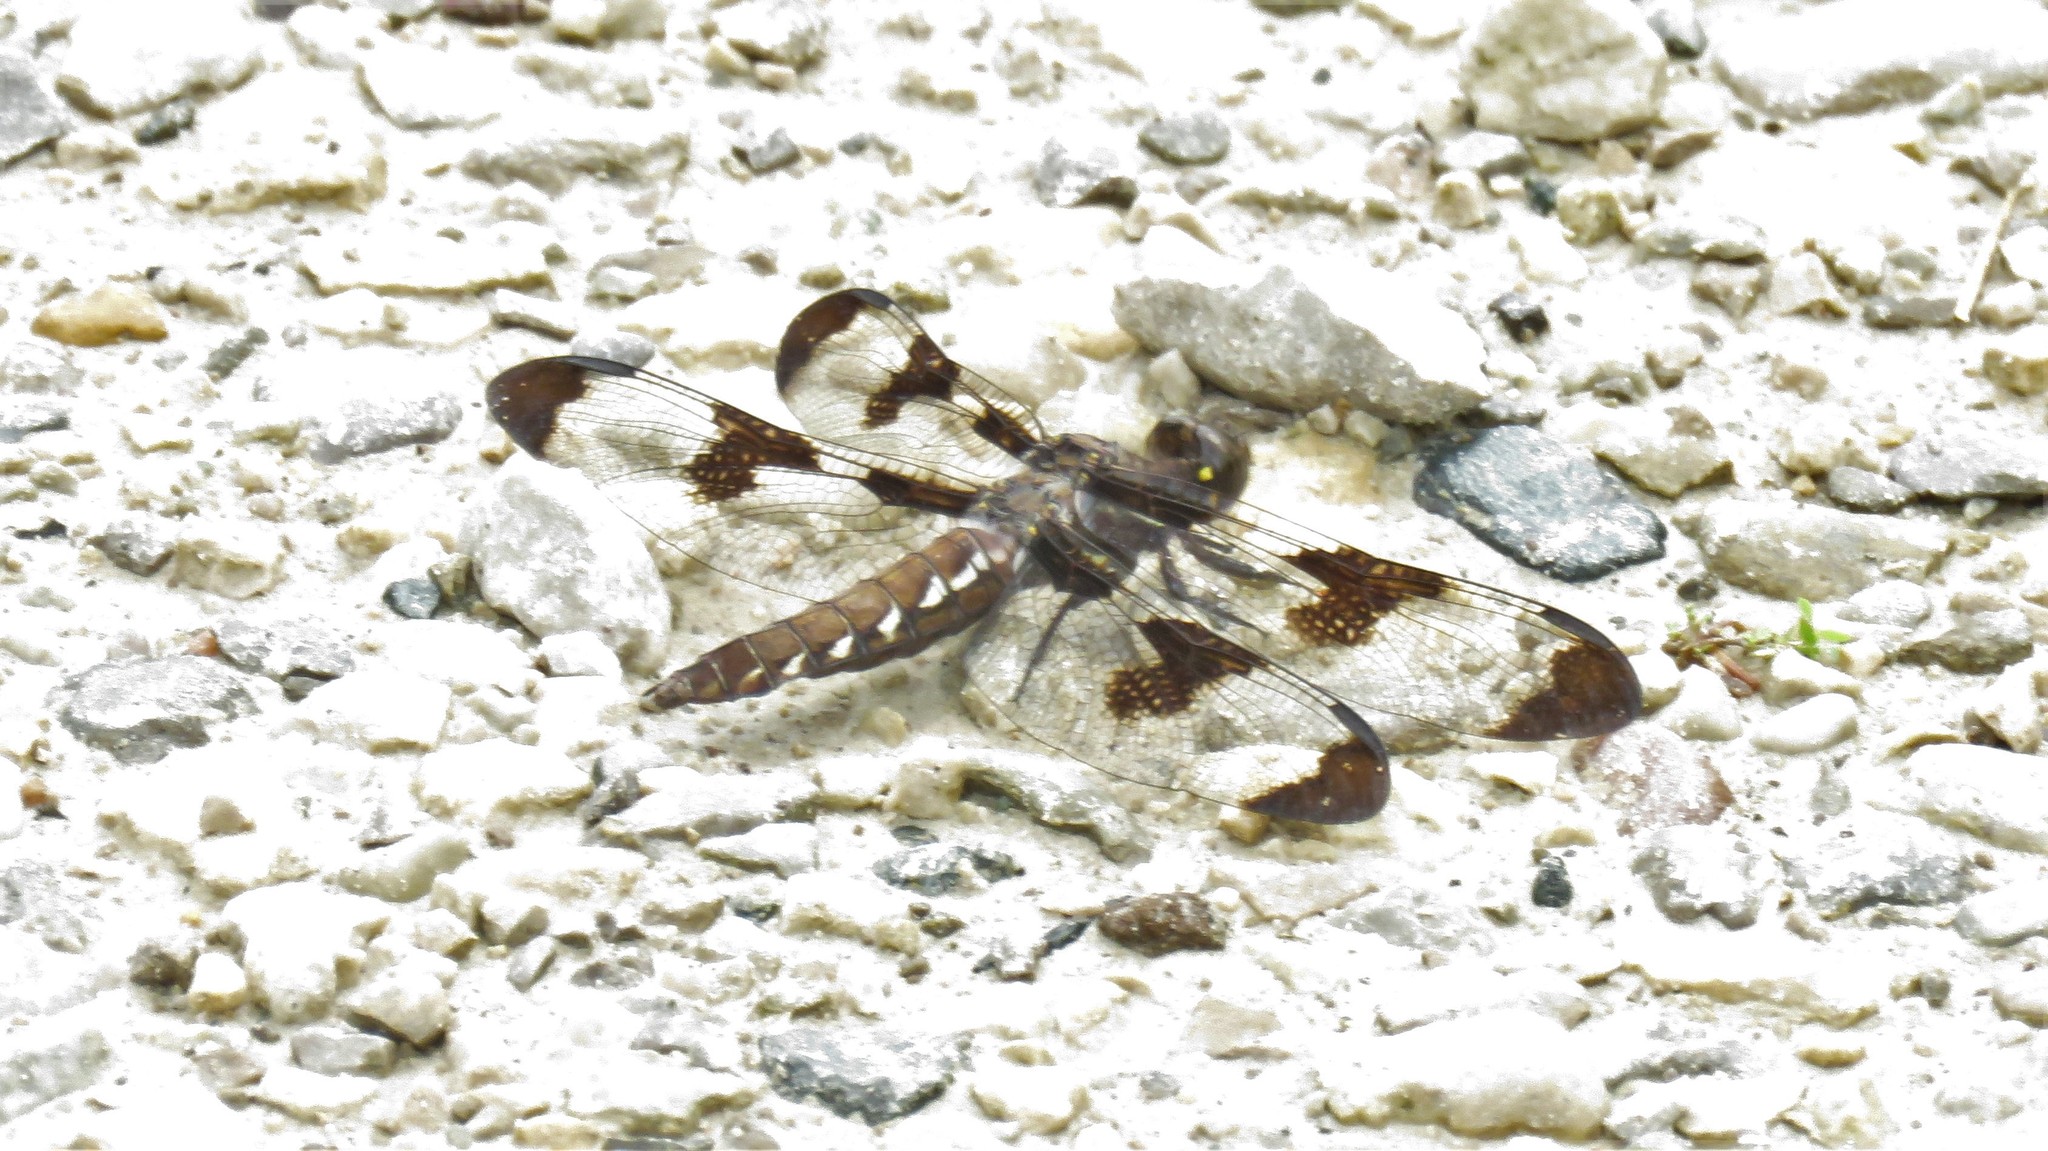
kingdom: Animalia
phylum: Arthropoda
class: Insecta
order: Odonata
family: Libellulidae
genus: Plathemis
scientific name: Plathemis lydia
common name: Common whitetail
